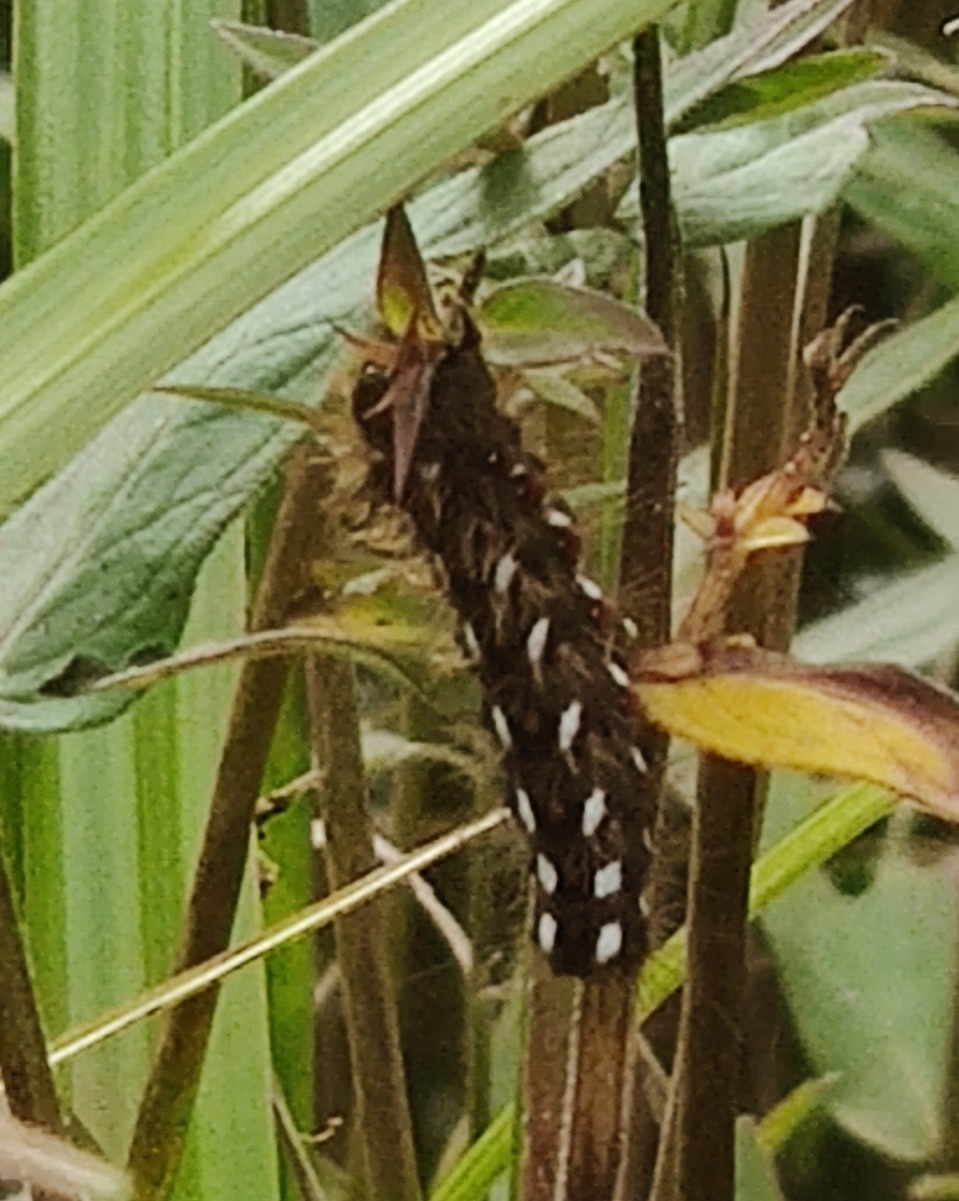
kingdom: Animalia
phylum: Arthropoda
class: Insecta
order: Lepidoptera
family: Noctuidae
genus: Acronicta
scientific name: Acronicta rumicis
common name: Knot grass
